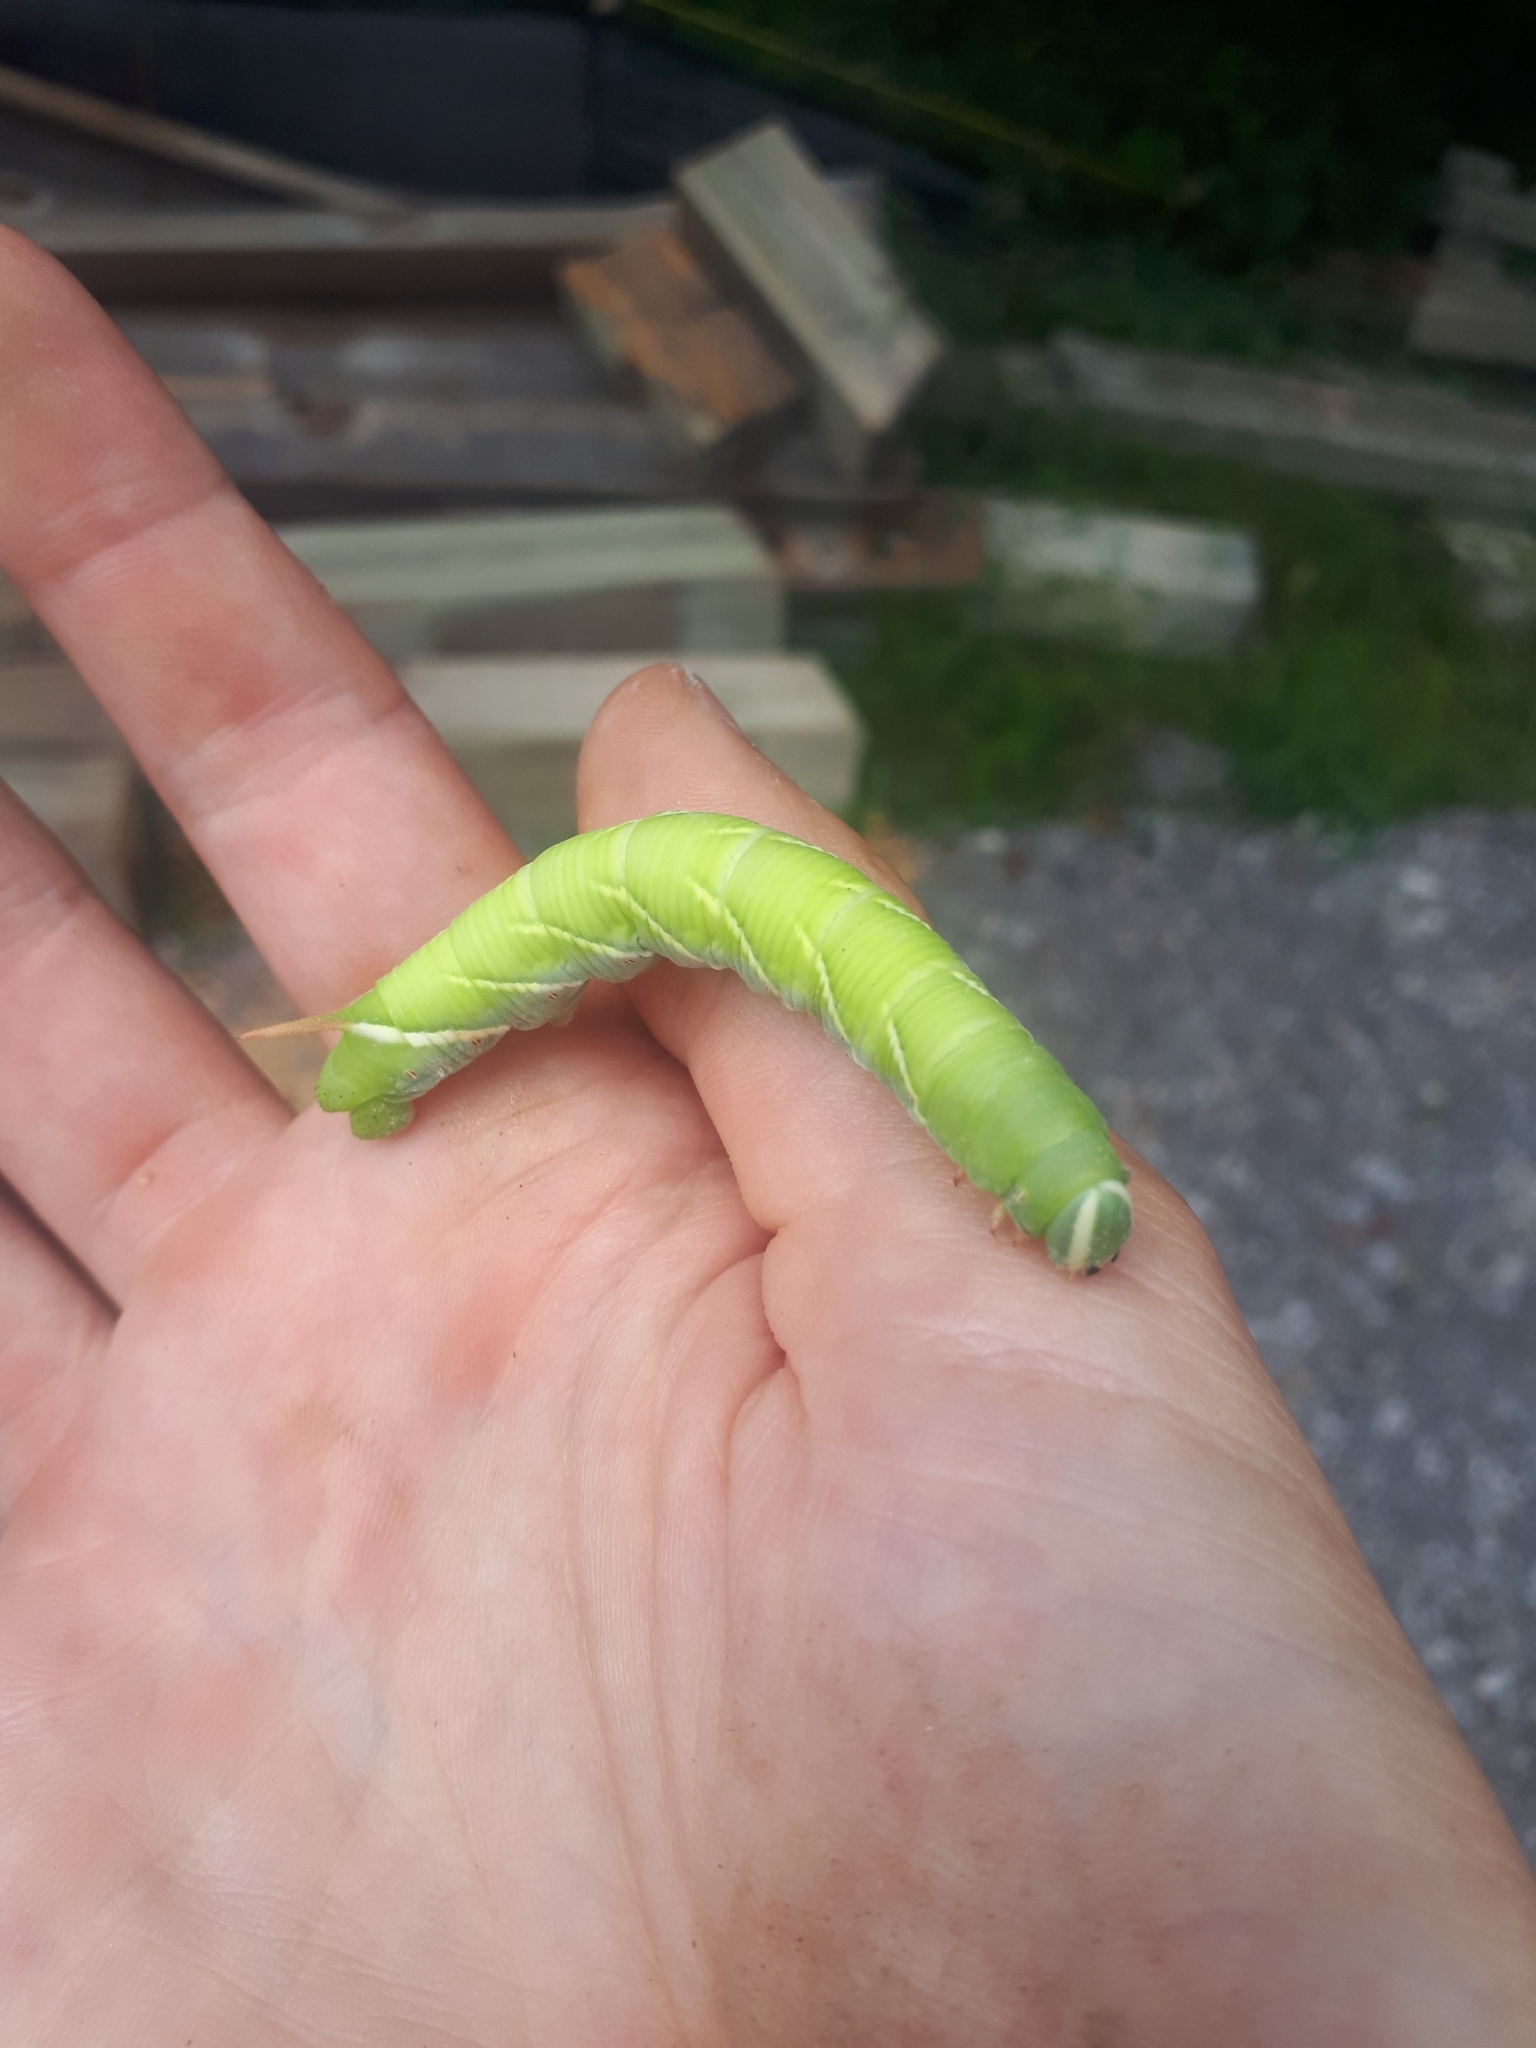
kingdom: Animalia
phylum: Arthropoda
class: Insecta
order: Lepidoptera
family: Sphingidae
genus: Ceratomia
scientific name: Ceratomia undulosa
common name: Waved sphinx
